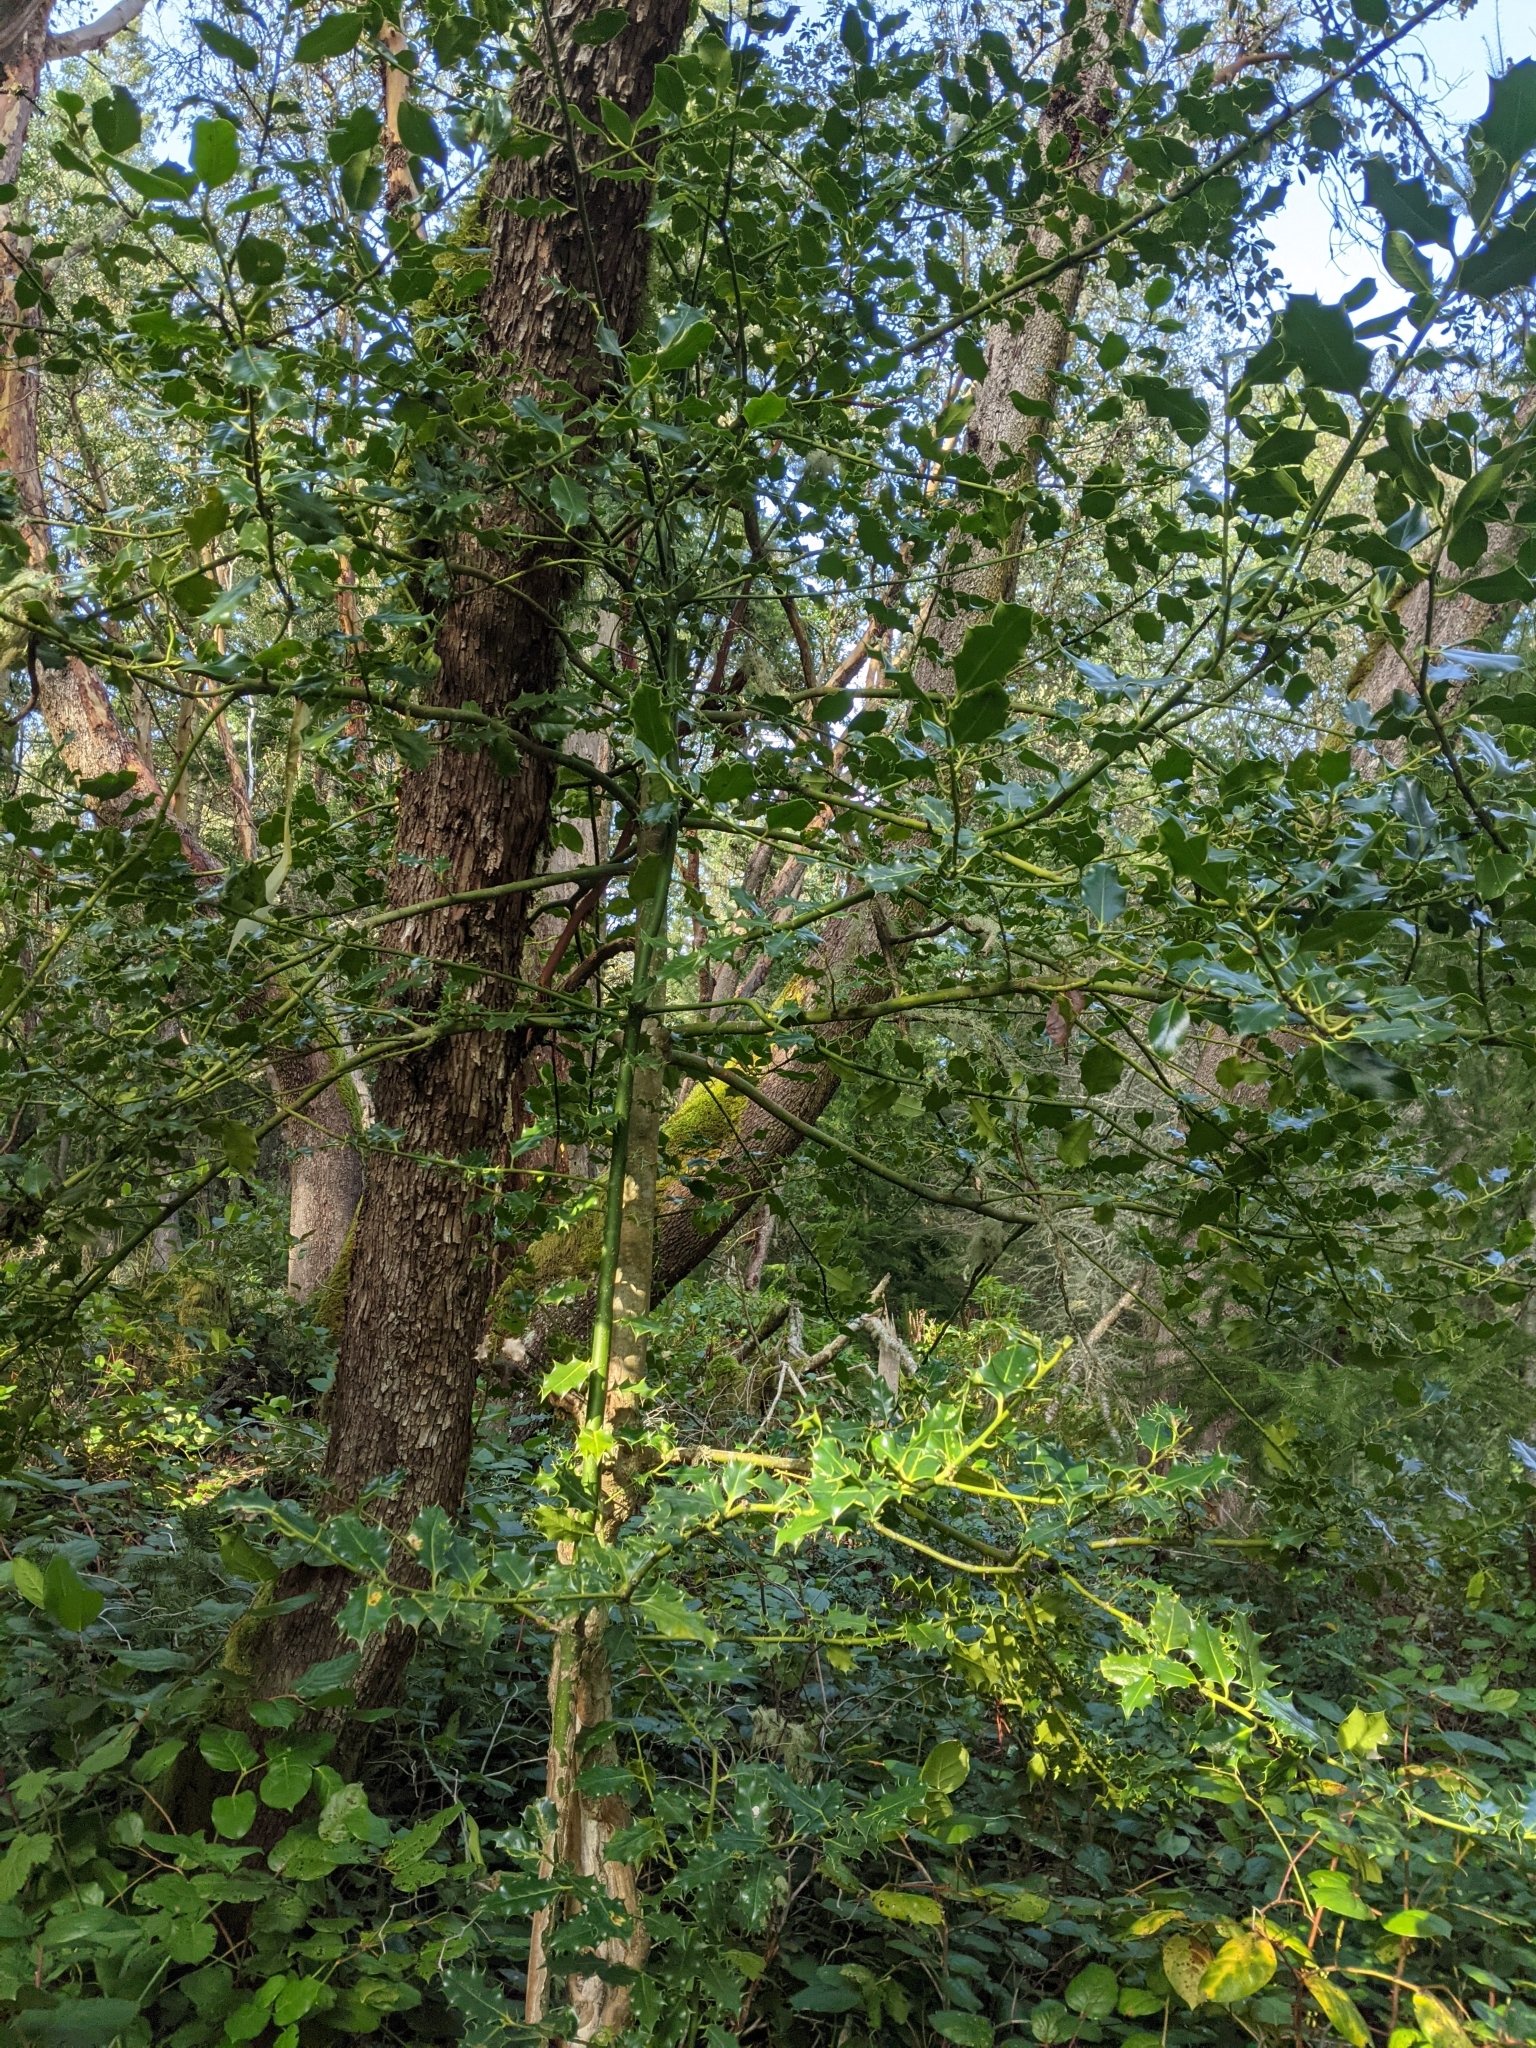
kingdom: Plantae
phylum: Tracheophyta
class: Magnoliopsida
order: Aquifoliales
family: Aquifoliaceae
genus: Ilex
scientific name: Ilex aquifolium
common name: English holly
